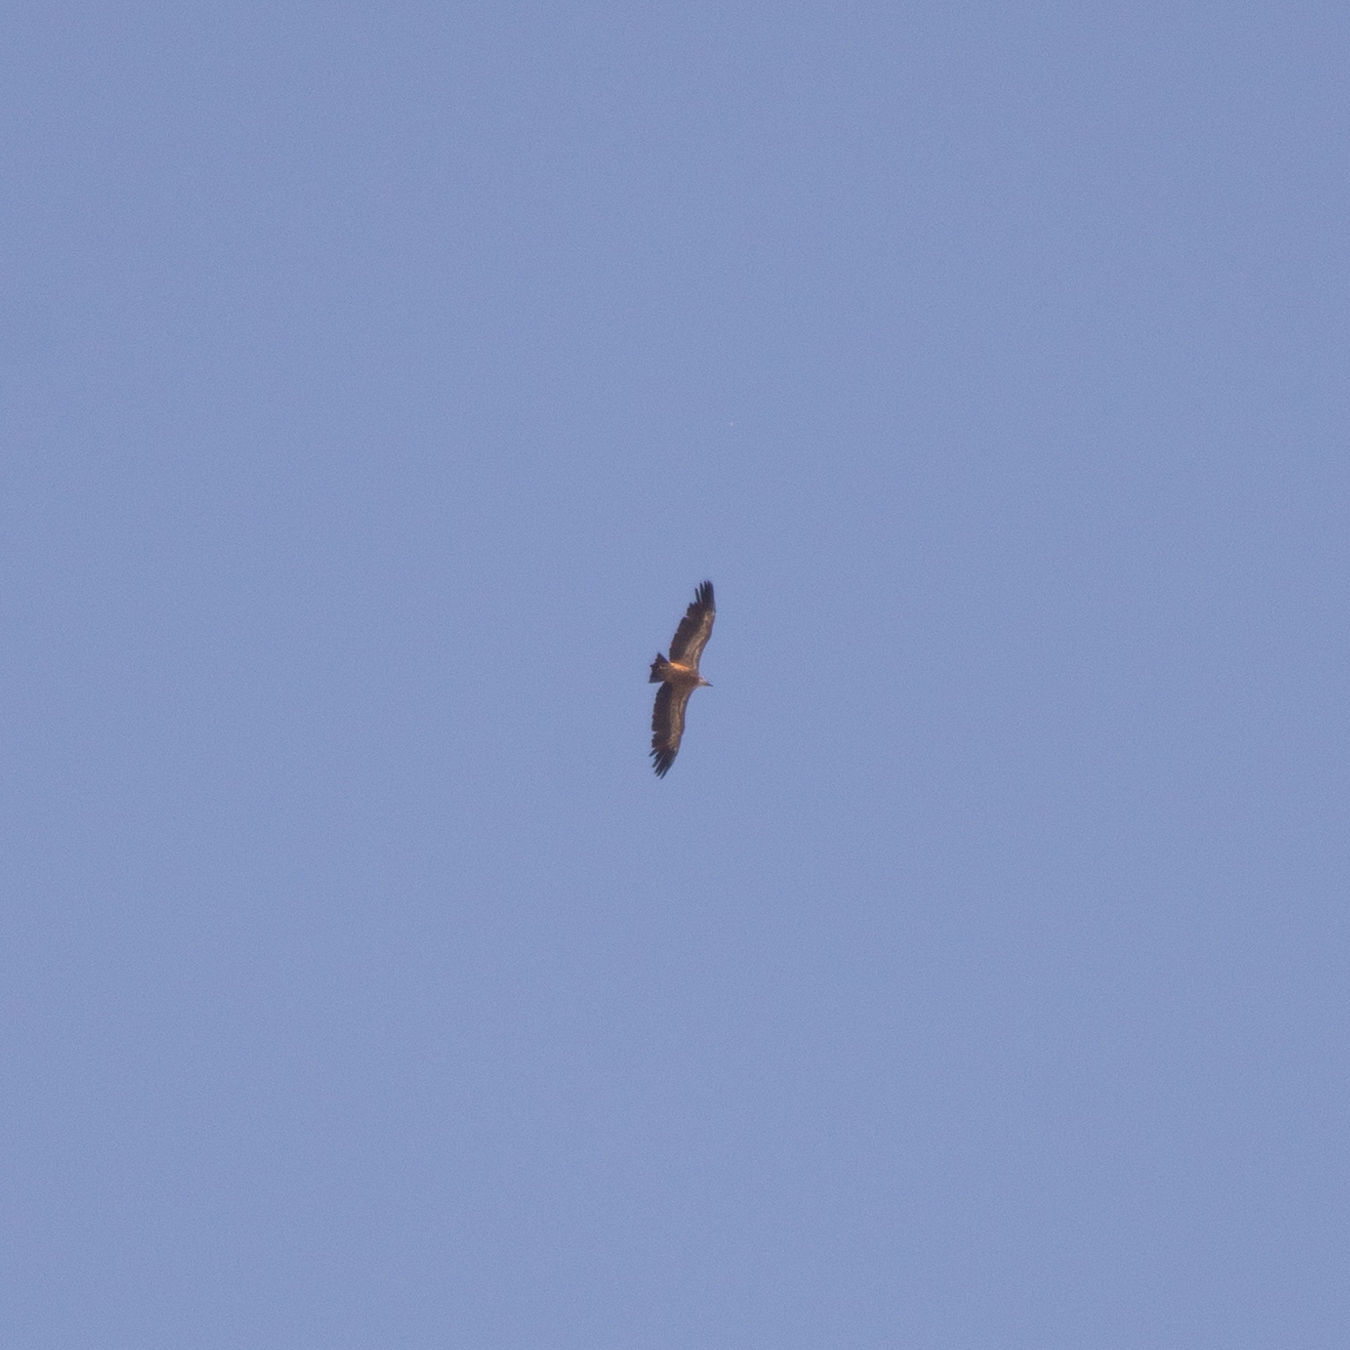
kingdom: Animalia
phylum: Chordata
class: Aves
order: Accipitriformes
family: Accipitridae
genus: Gyps
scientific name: Gyps fulvus
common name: Griffon vulture
